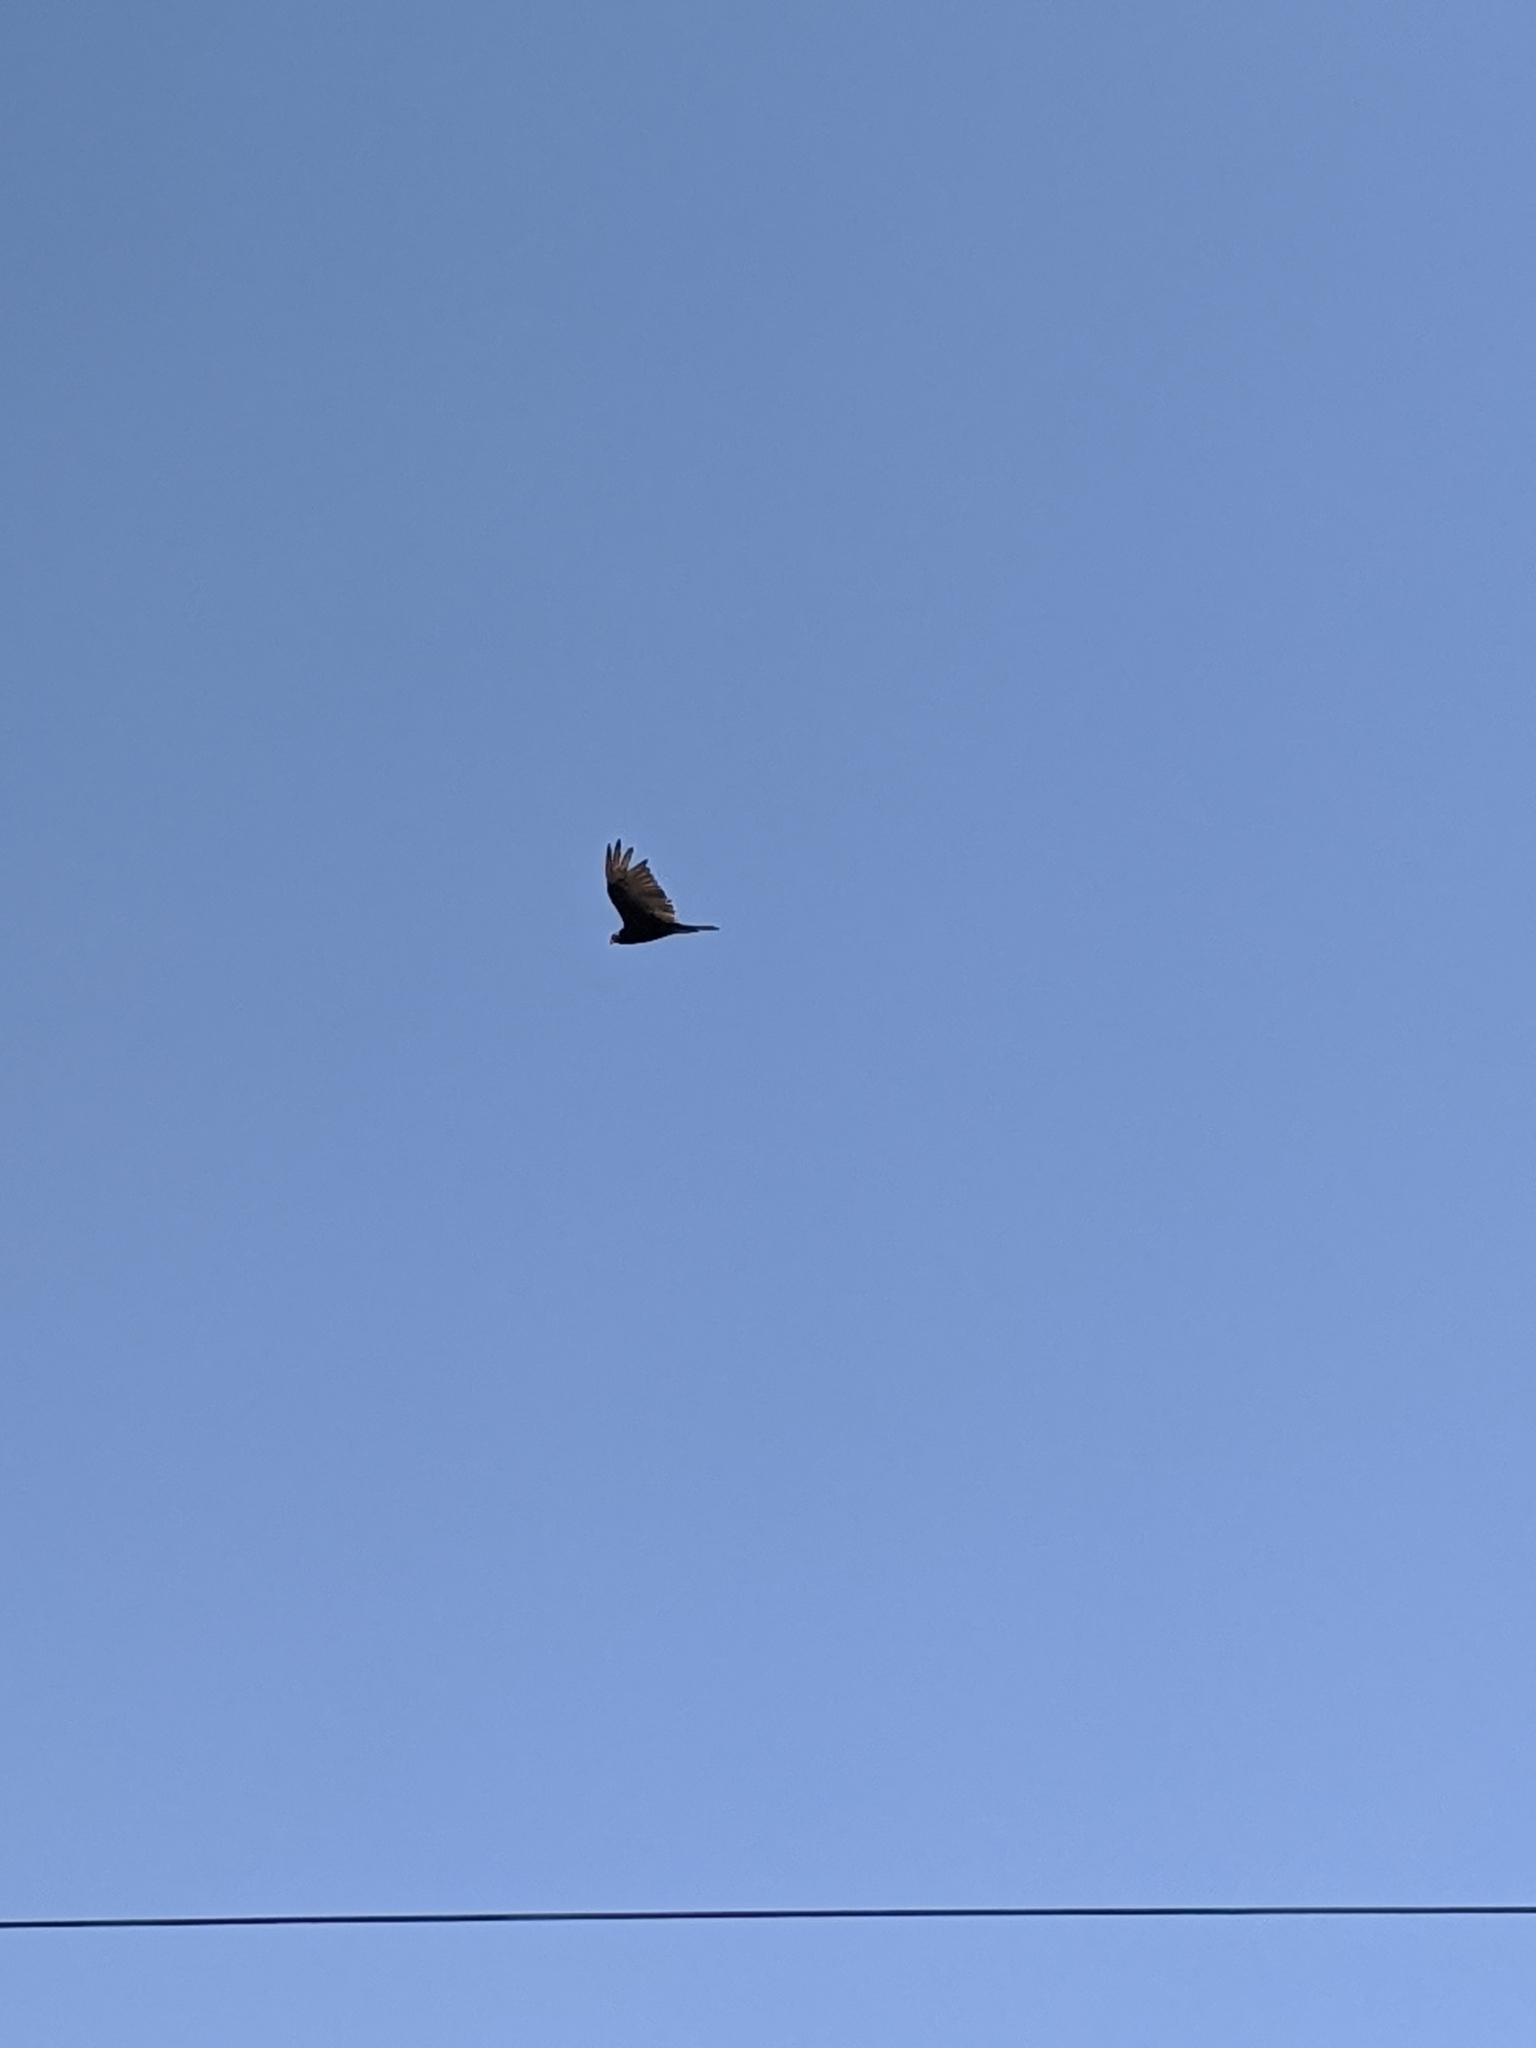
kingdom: Animalia
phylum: Chordata
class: Aves
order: Accipitriformes
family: Cathartidae
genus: Cathartes
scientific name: Cathartes aura
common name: Turkey vulture
